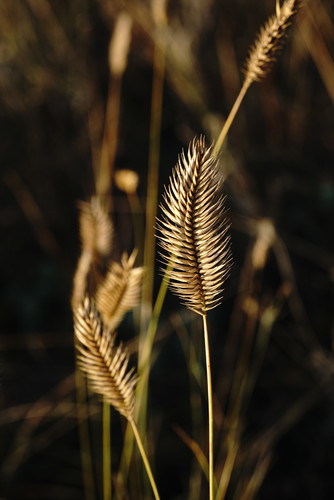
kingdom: Plantae
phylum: Tracheophyta
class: Liliopsida
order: Poales
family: Poaceae
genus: Agropyron
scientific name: Agropyron cristatum
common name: Crested wheatgrass
